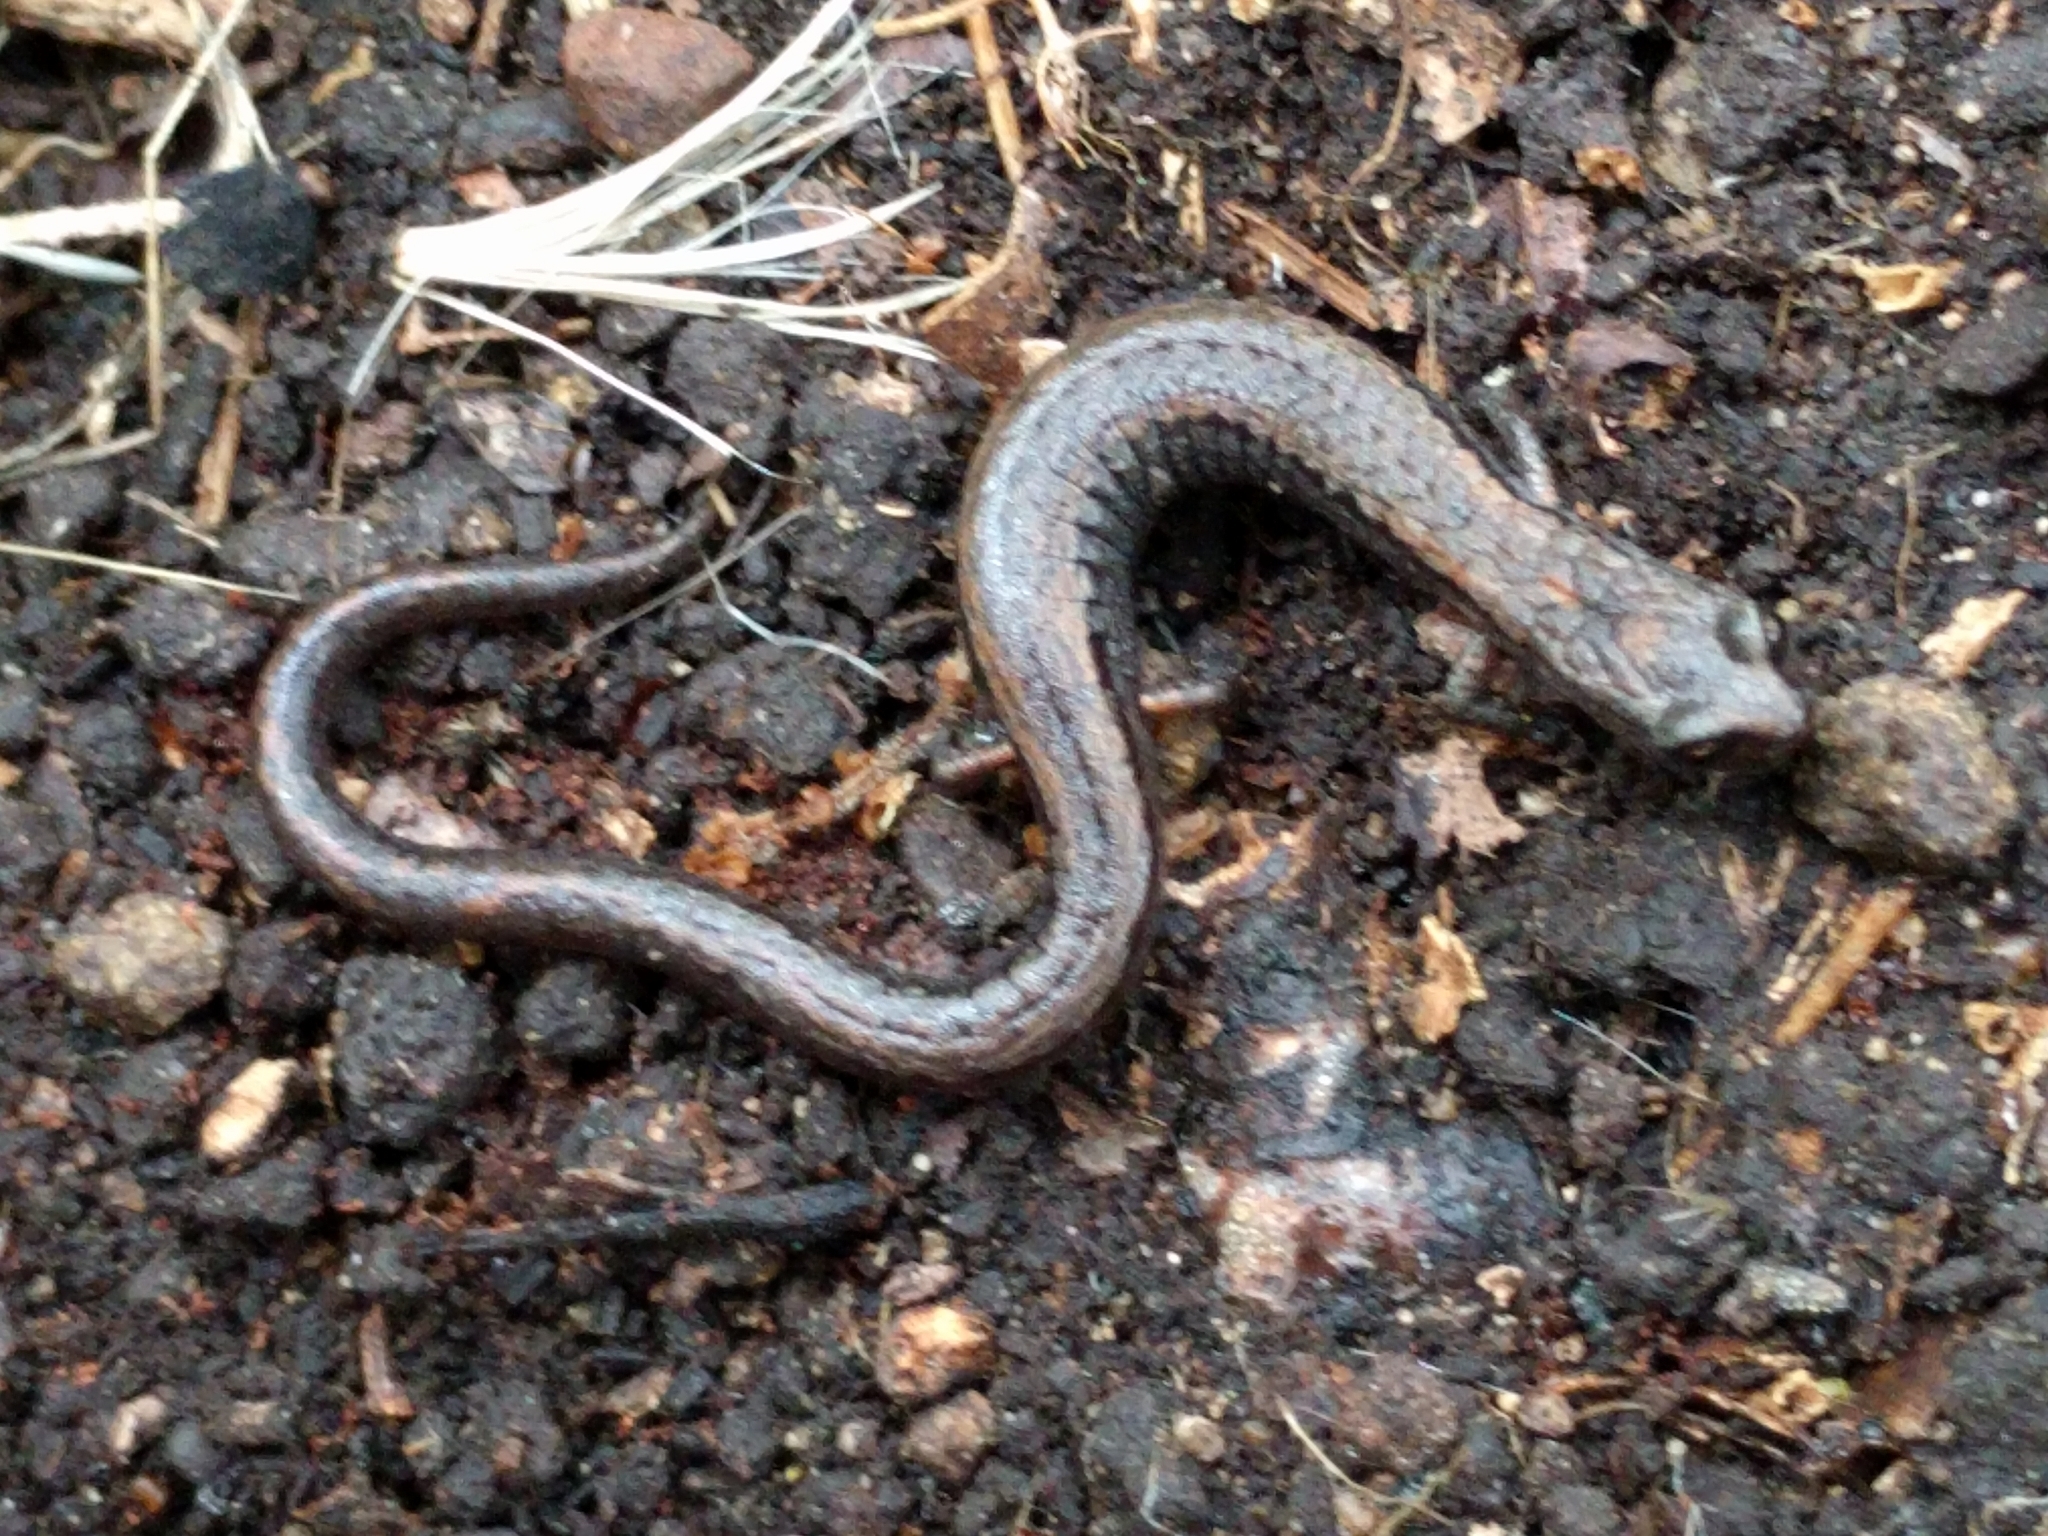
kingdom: Animalia
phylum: Chordata
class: Amphibia
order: Caudata
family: Plethodontidae
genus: Batrachoseps
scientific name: Batrachoseps attenuatus
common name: California slender salamander
